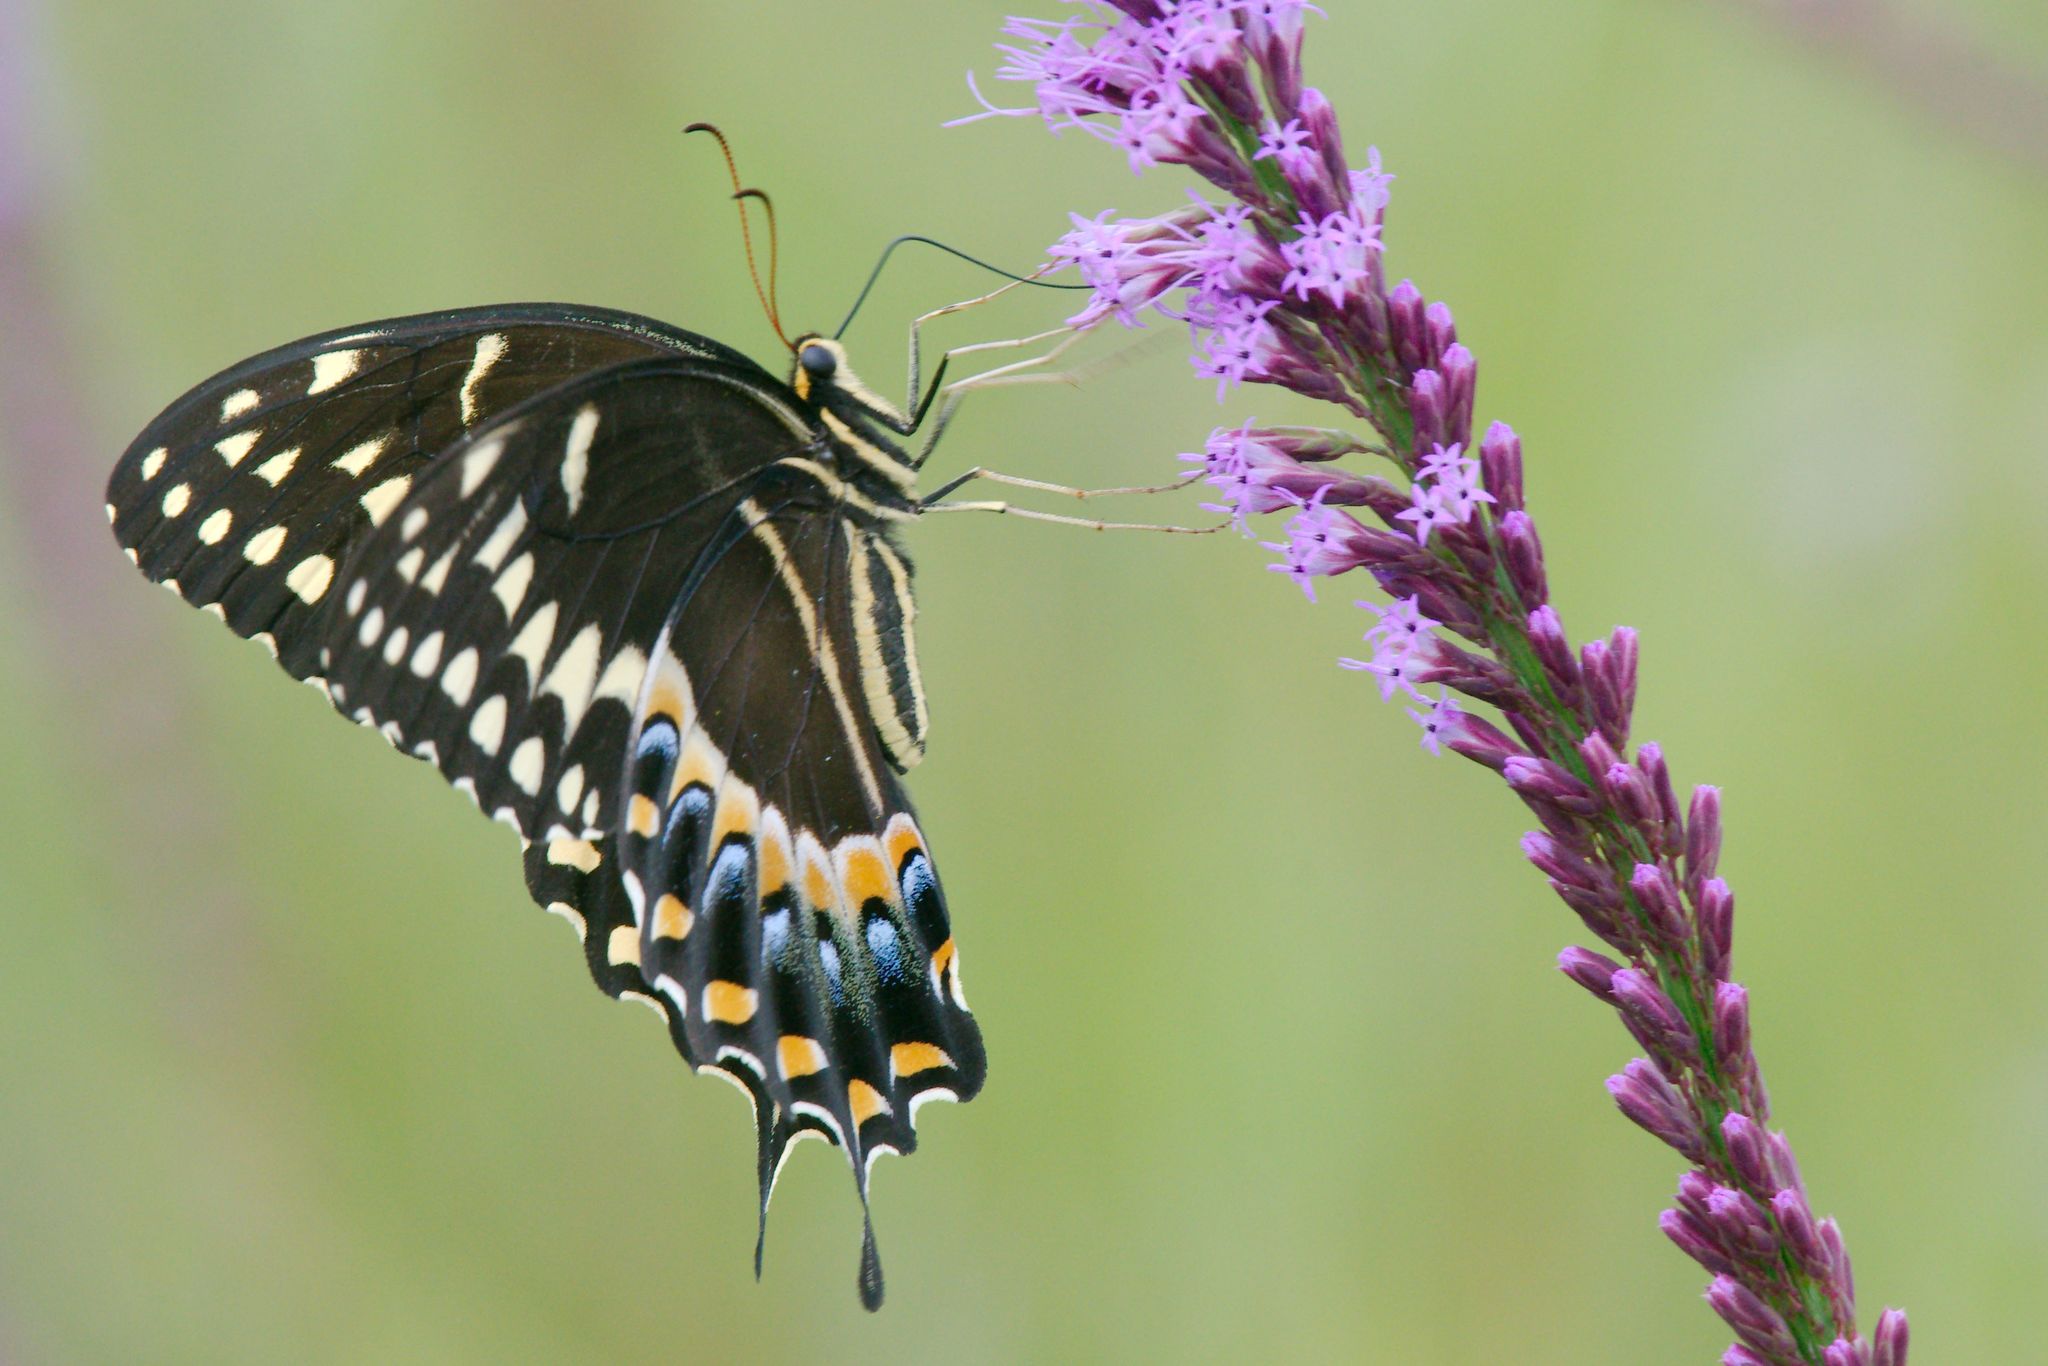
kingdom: Animalia
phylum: Arthropoda
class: Insecta
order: Lepidoptera
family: Papilionidae
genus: Papilio
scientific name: Papilio palamedes
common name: Palamedes swallowtail
